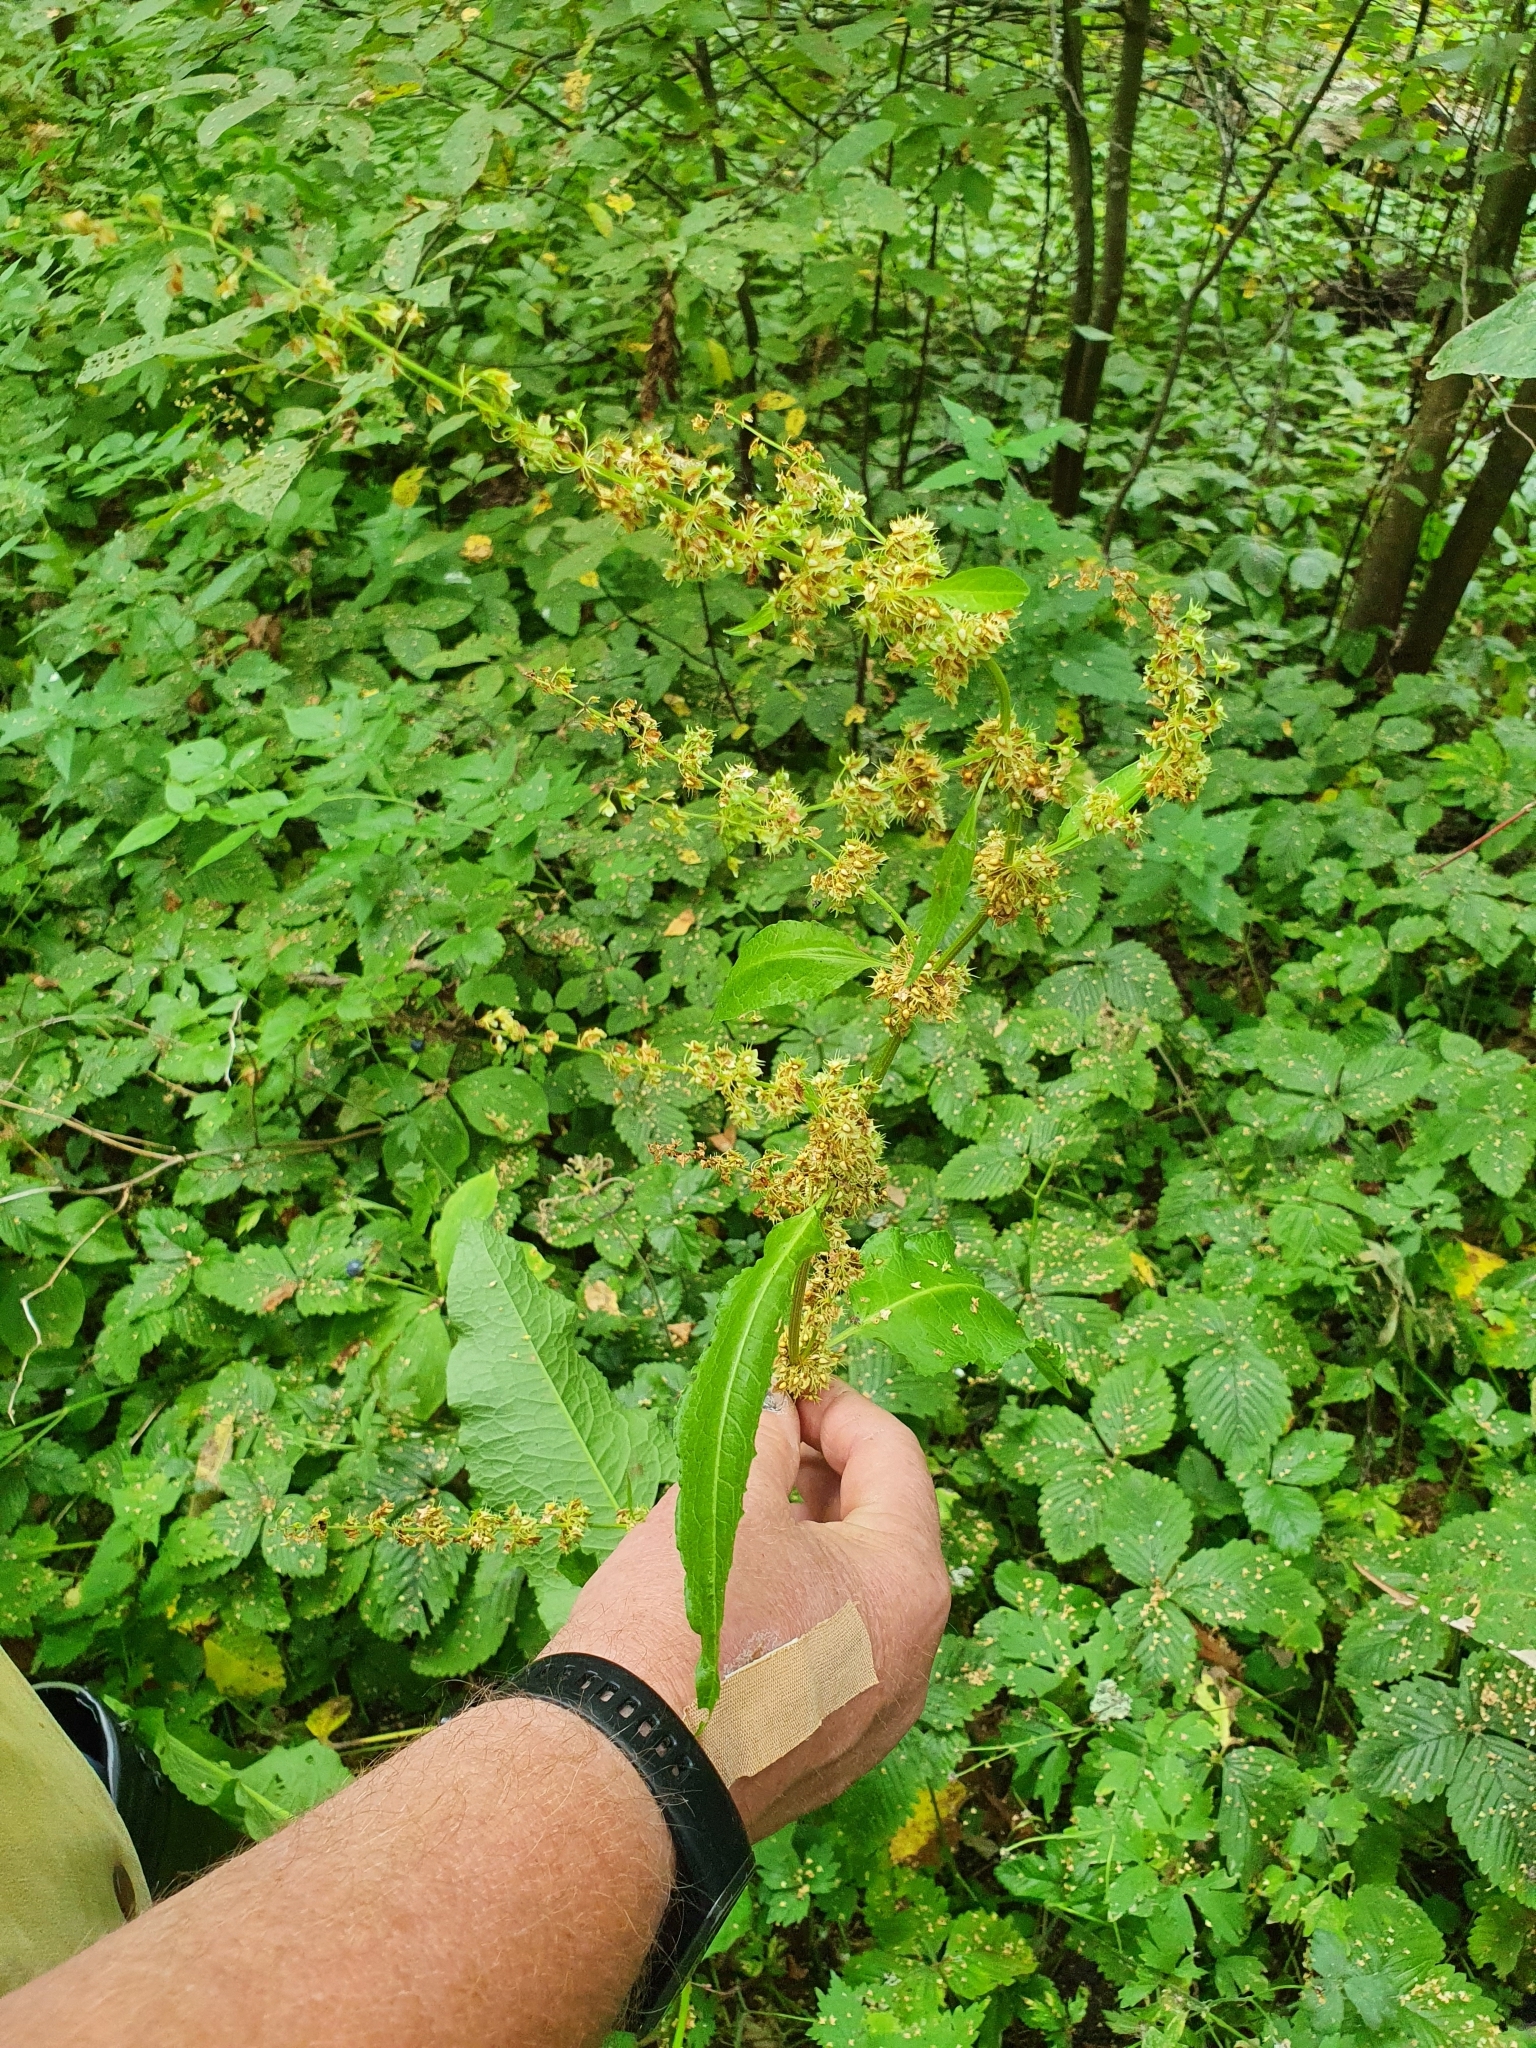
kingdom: Plantae
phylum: Tracheophyta
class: Magnoliopsida
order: Caryophyllales
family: Polygonaceae
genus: Rumex
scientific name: Rumex obtusifolius
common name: Bitter dock
